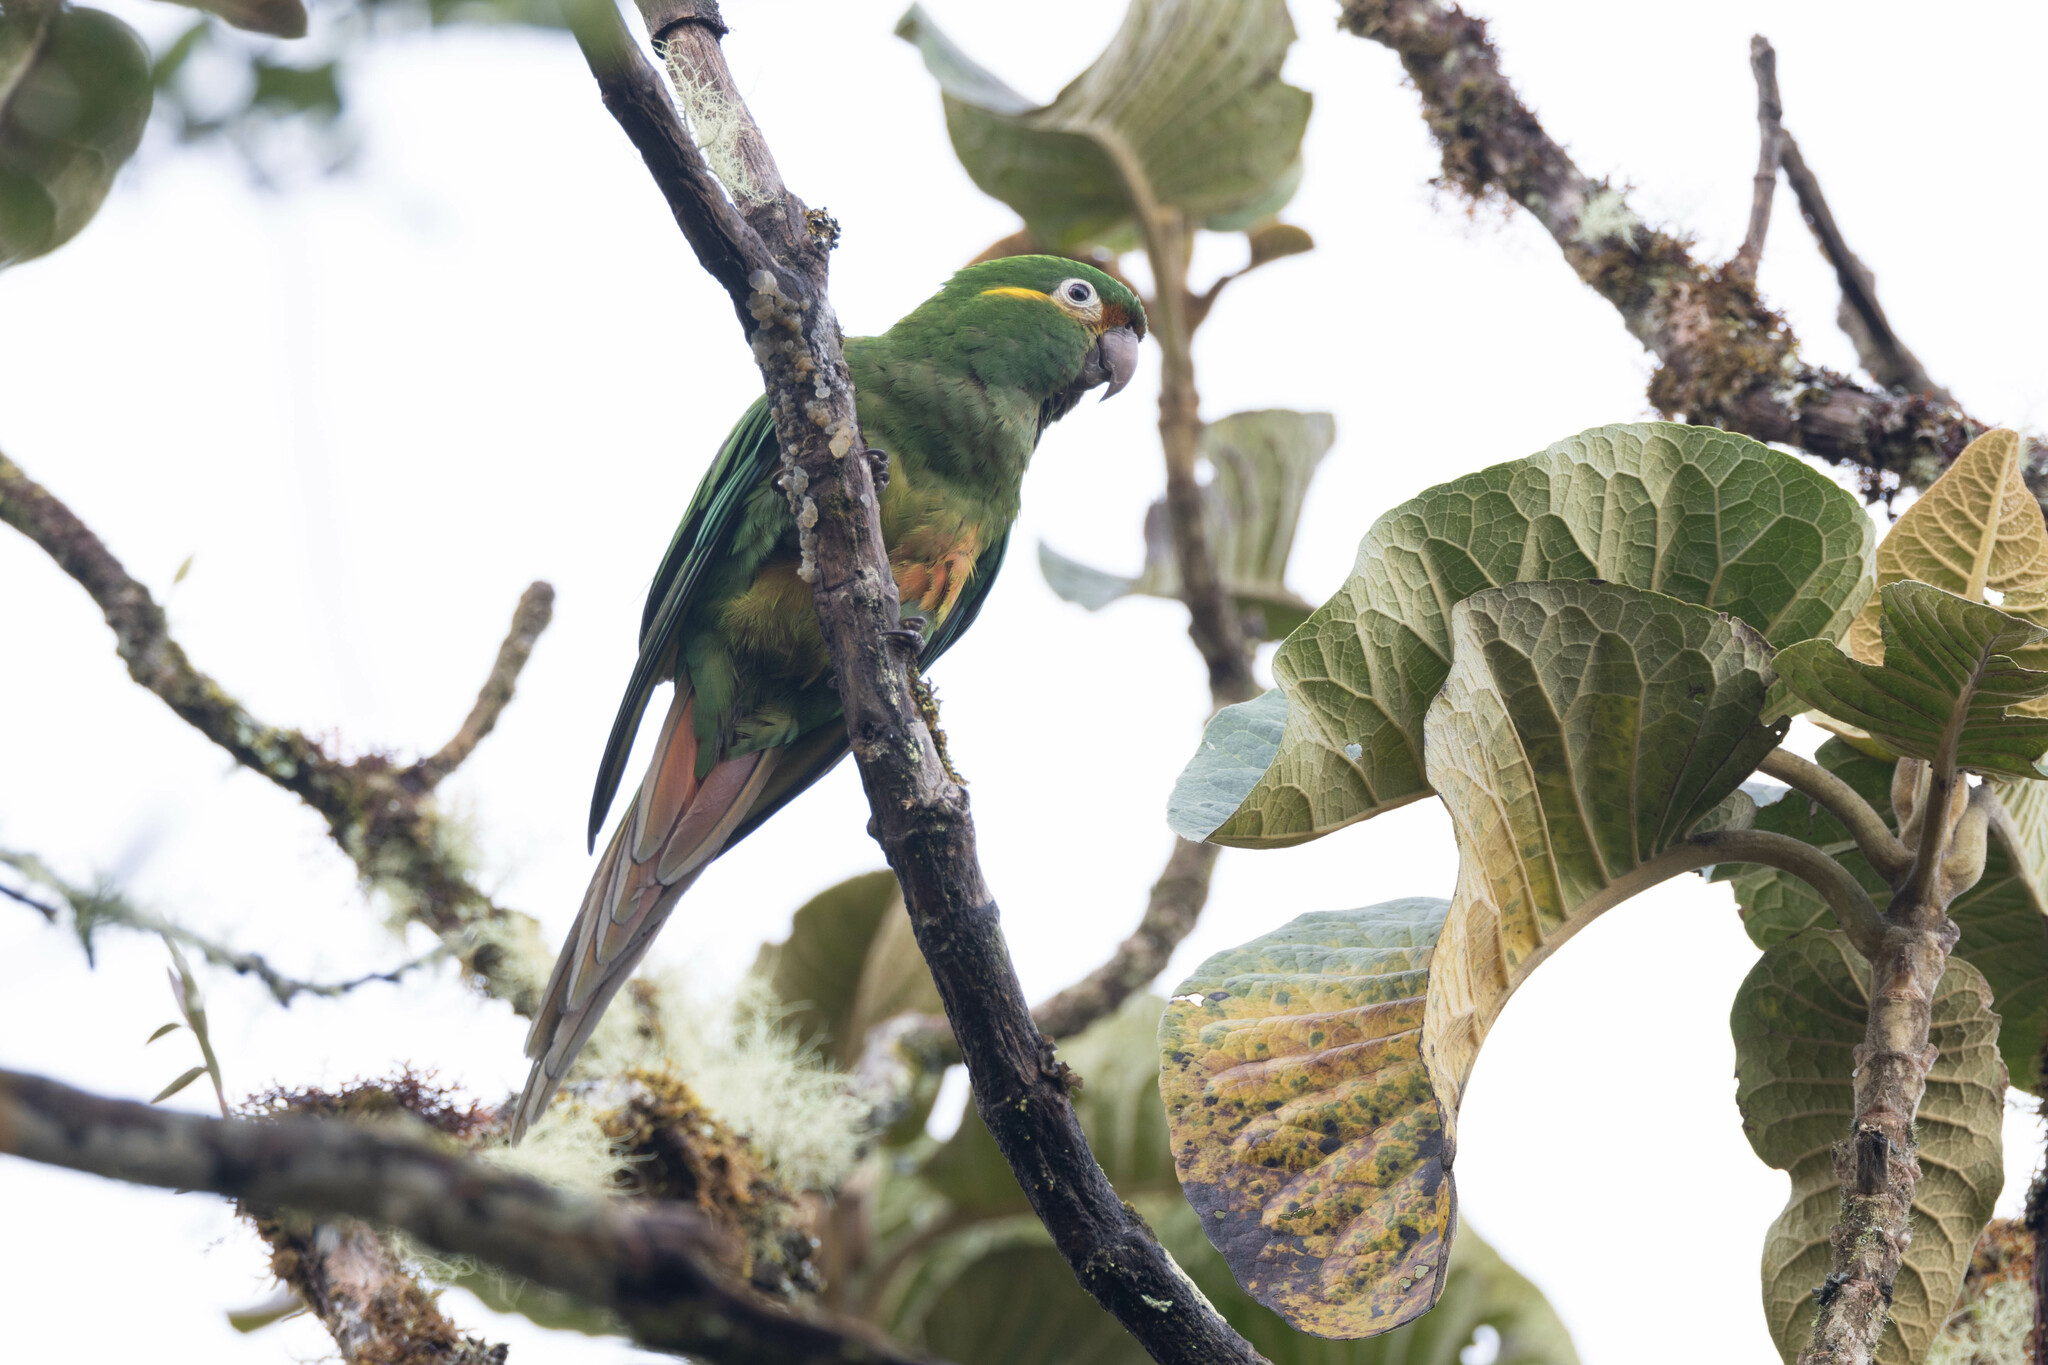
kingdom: Animalia
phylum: Chordata
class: Aves
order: Psittaciformes
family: Psittacidae
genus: Leptosittaca
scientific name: Leptosittaca branickii
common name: Golden-plumed parakeet
